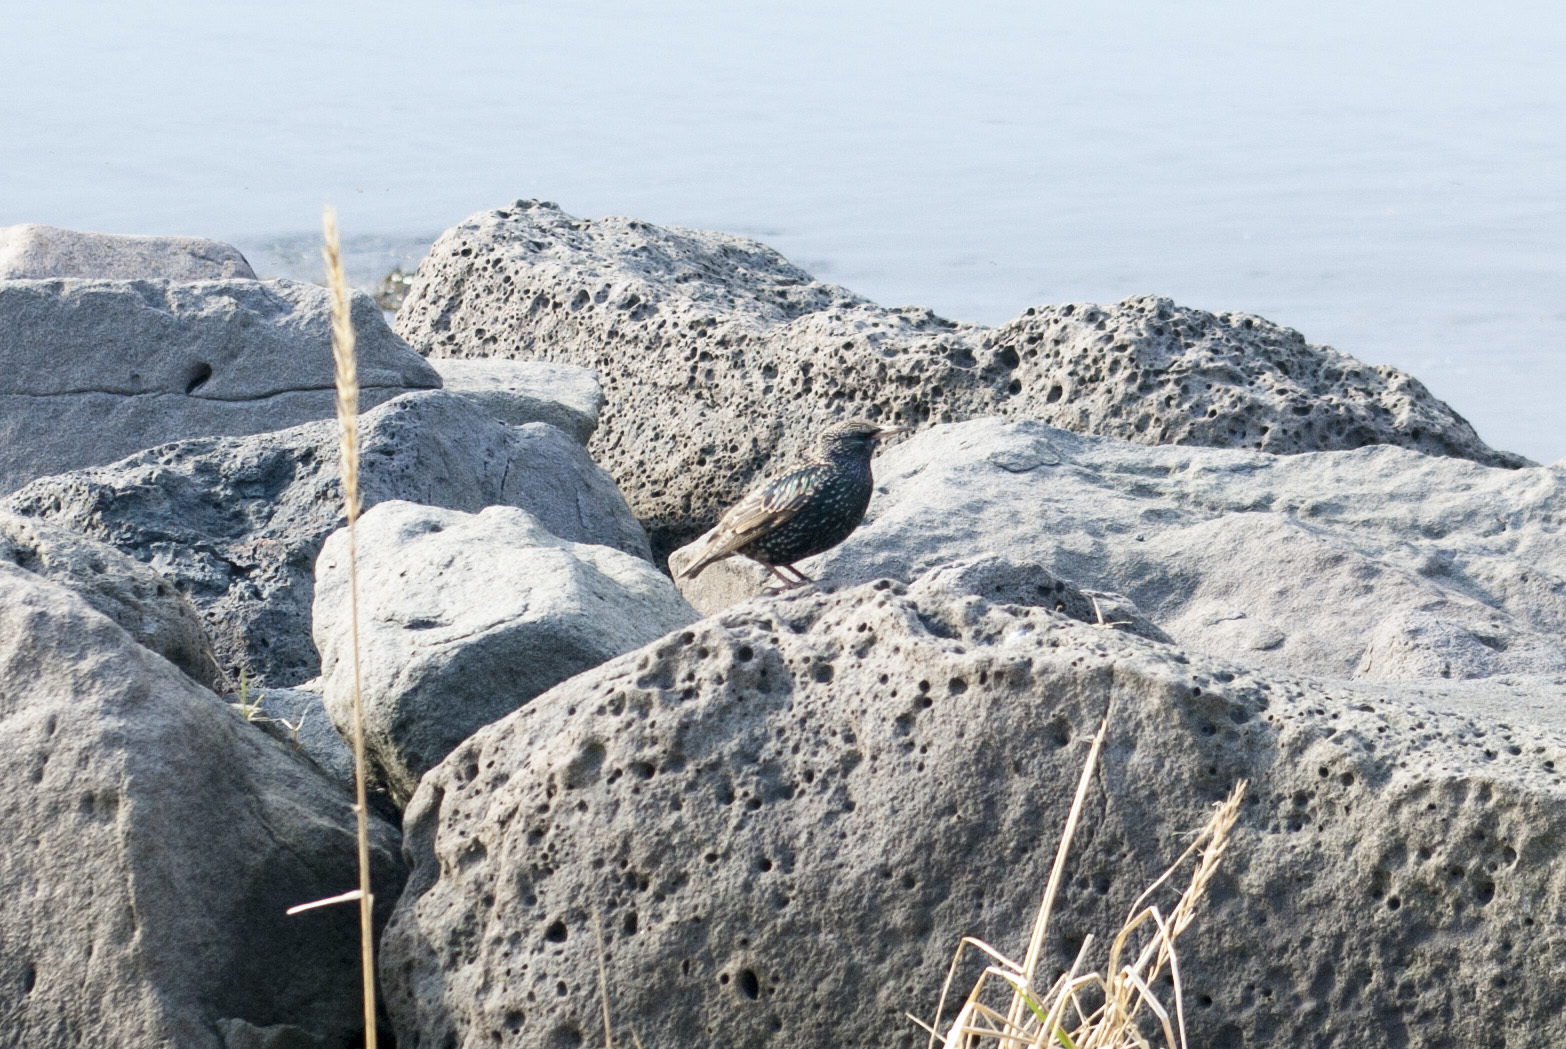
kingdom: Animalia
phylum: Chordata
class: Aves
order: Passeriformes
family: Sturnidae
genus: Sturnus
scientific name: Sturnus vulgaris
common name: Common starling
